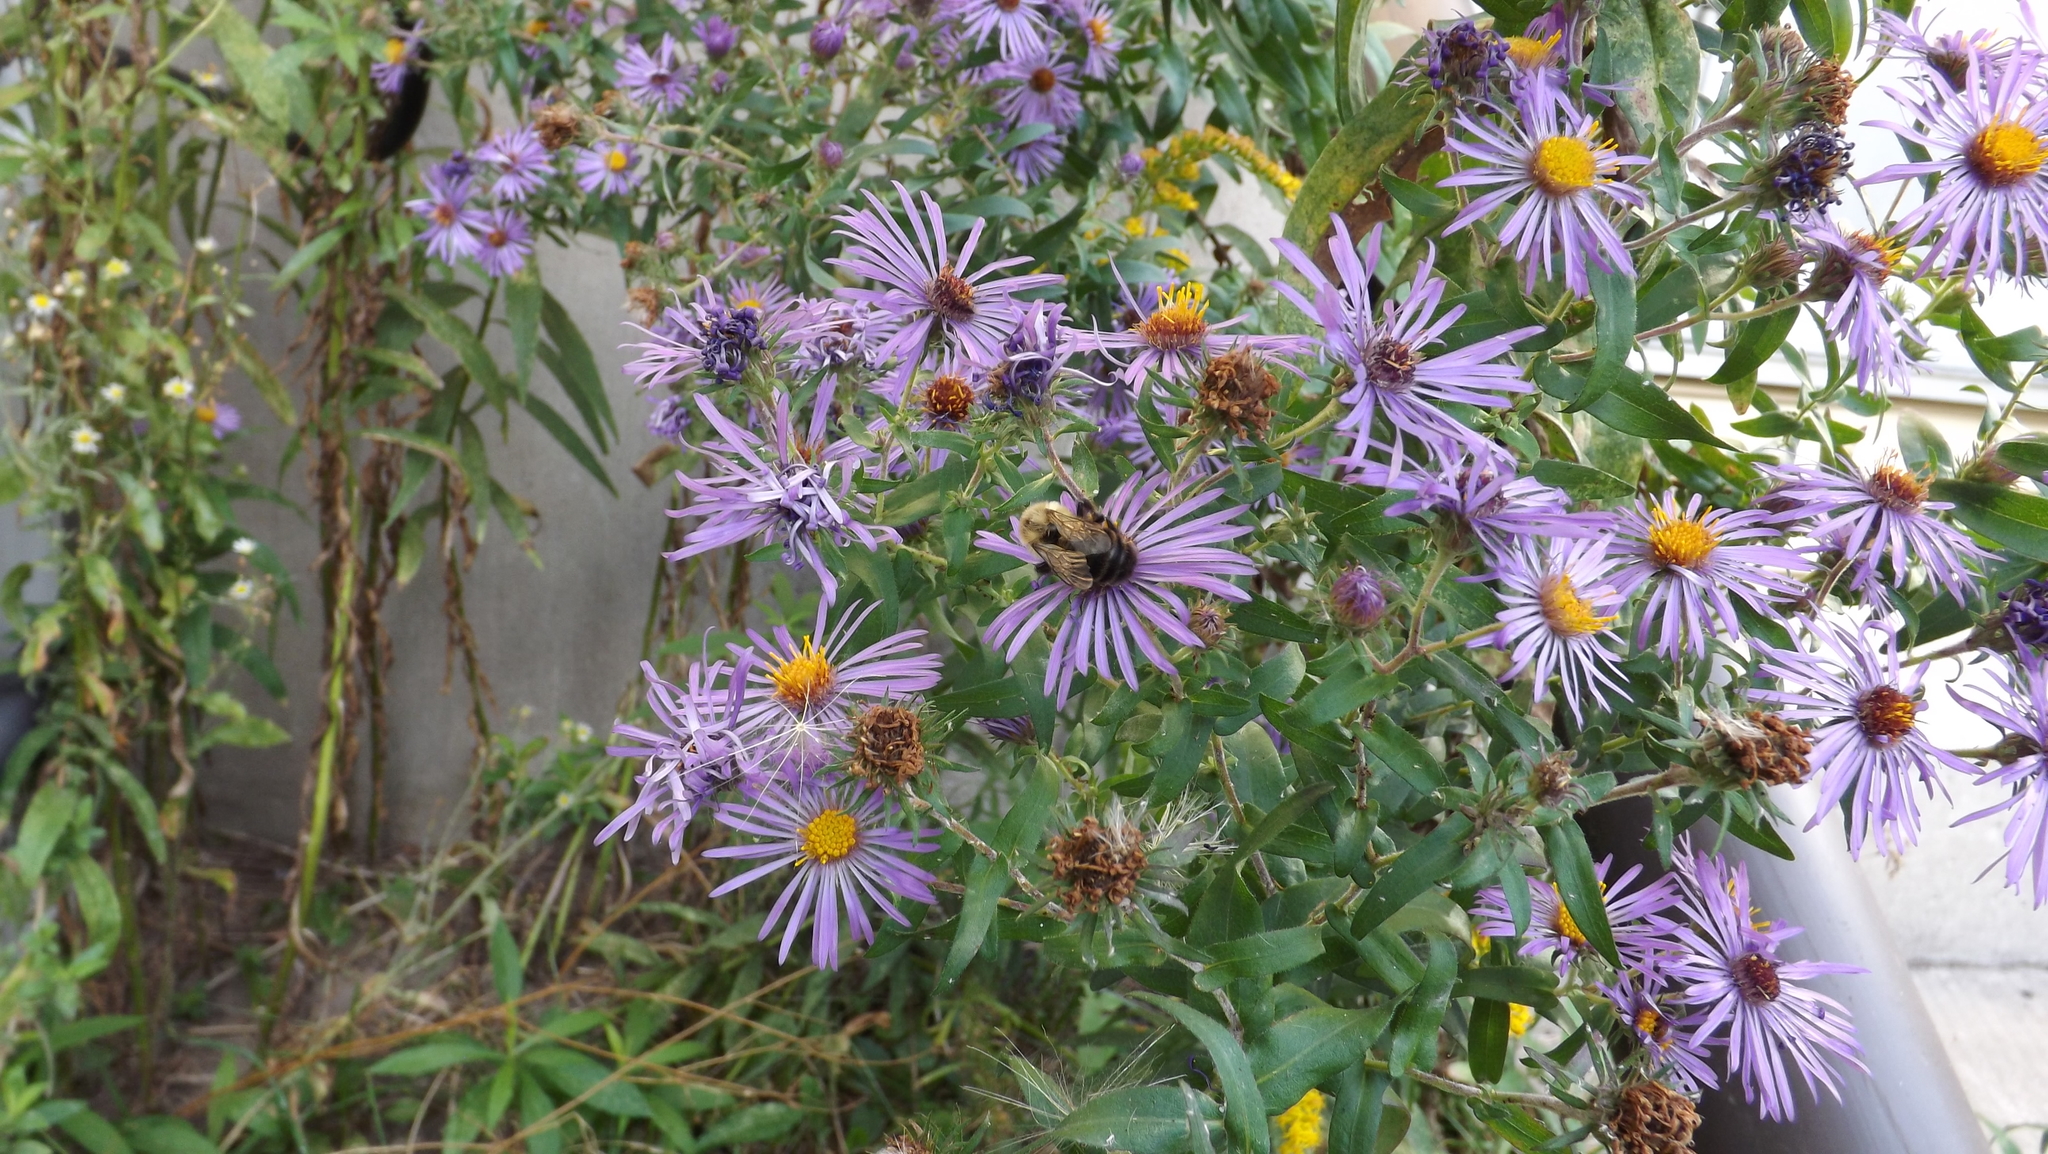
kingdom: Animalia
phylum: Arthropoda
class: Insecta
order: Hymenoptera
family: Apidae
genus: Bombus
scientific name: Bombus impatiens
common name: Common eastern bumble bee
